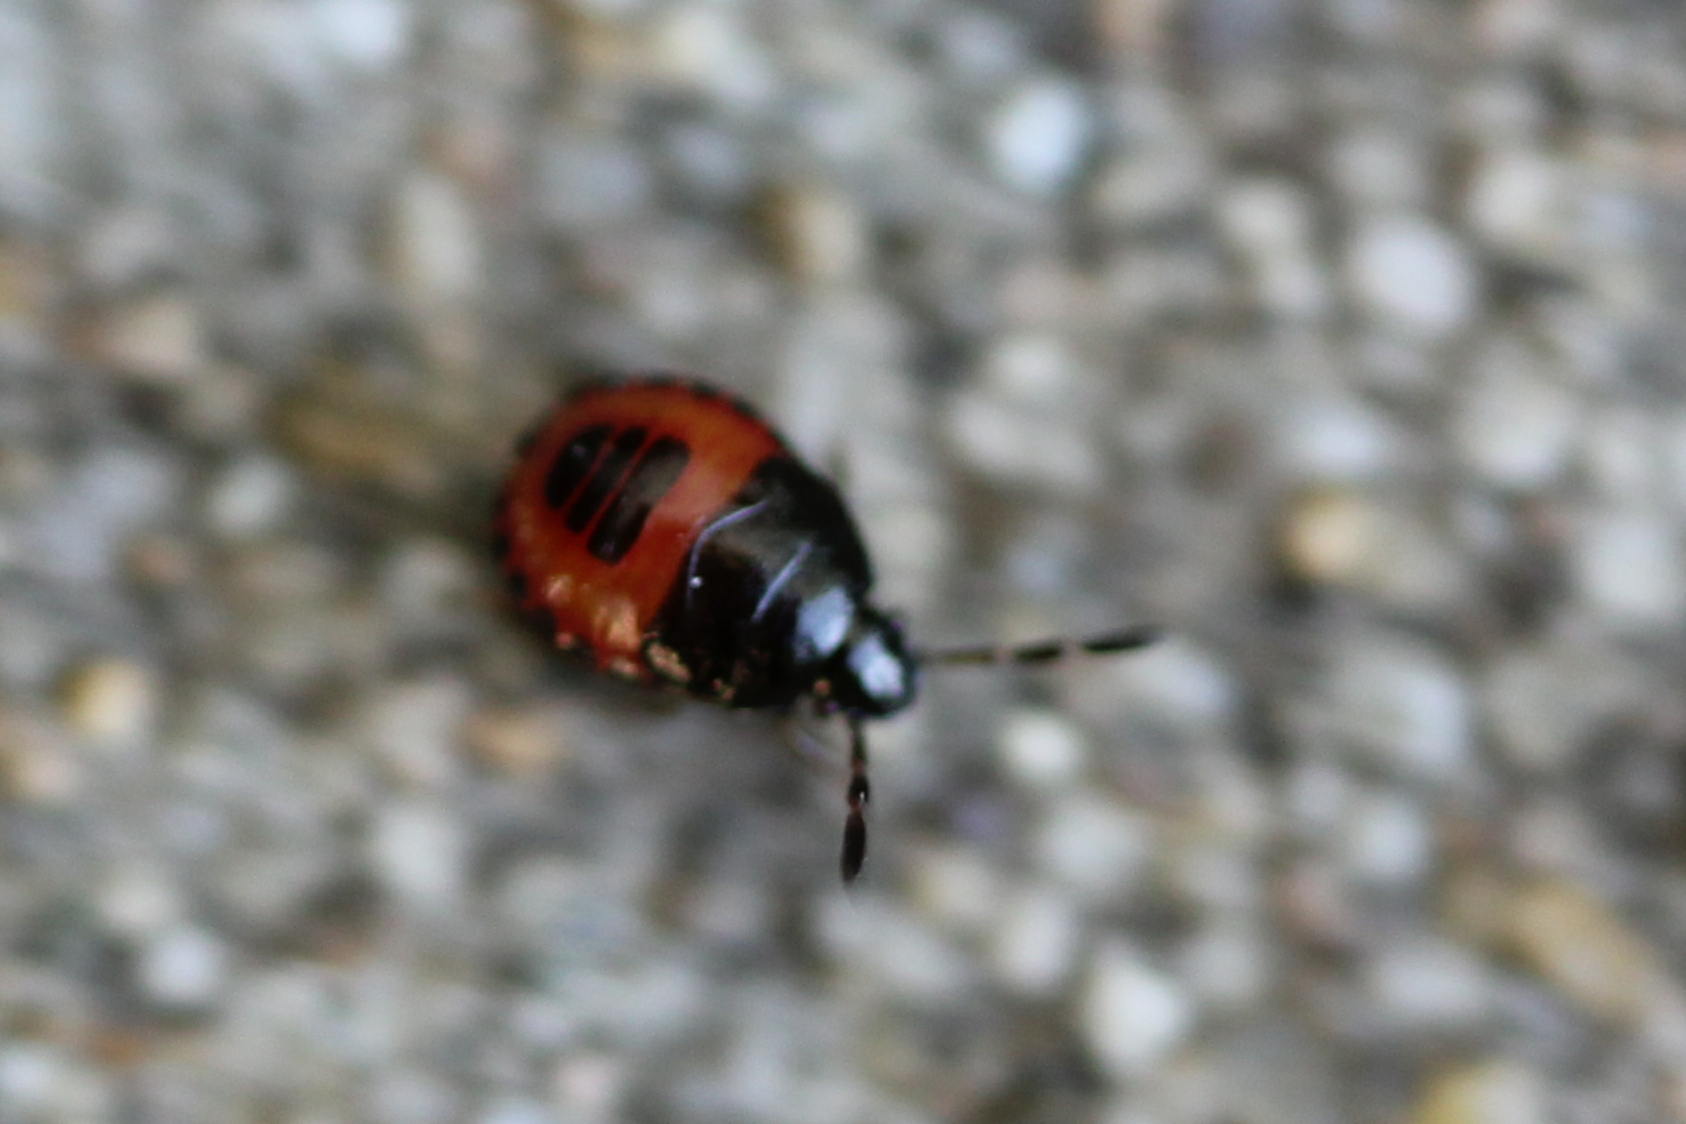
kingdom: Animalia
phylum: Arthropoda
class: Insecta
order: Hemiptera
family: Cydnidae
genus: Sehirus
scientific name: Sehirus cinctus
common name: White-margined burrower bug
